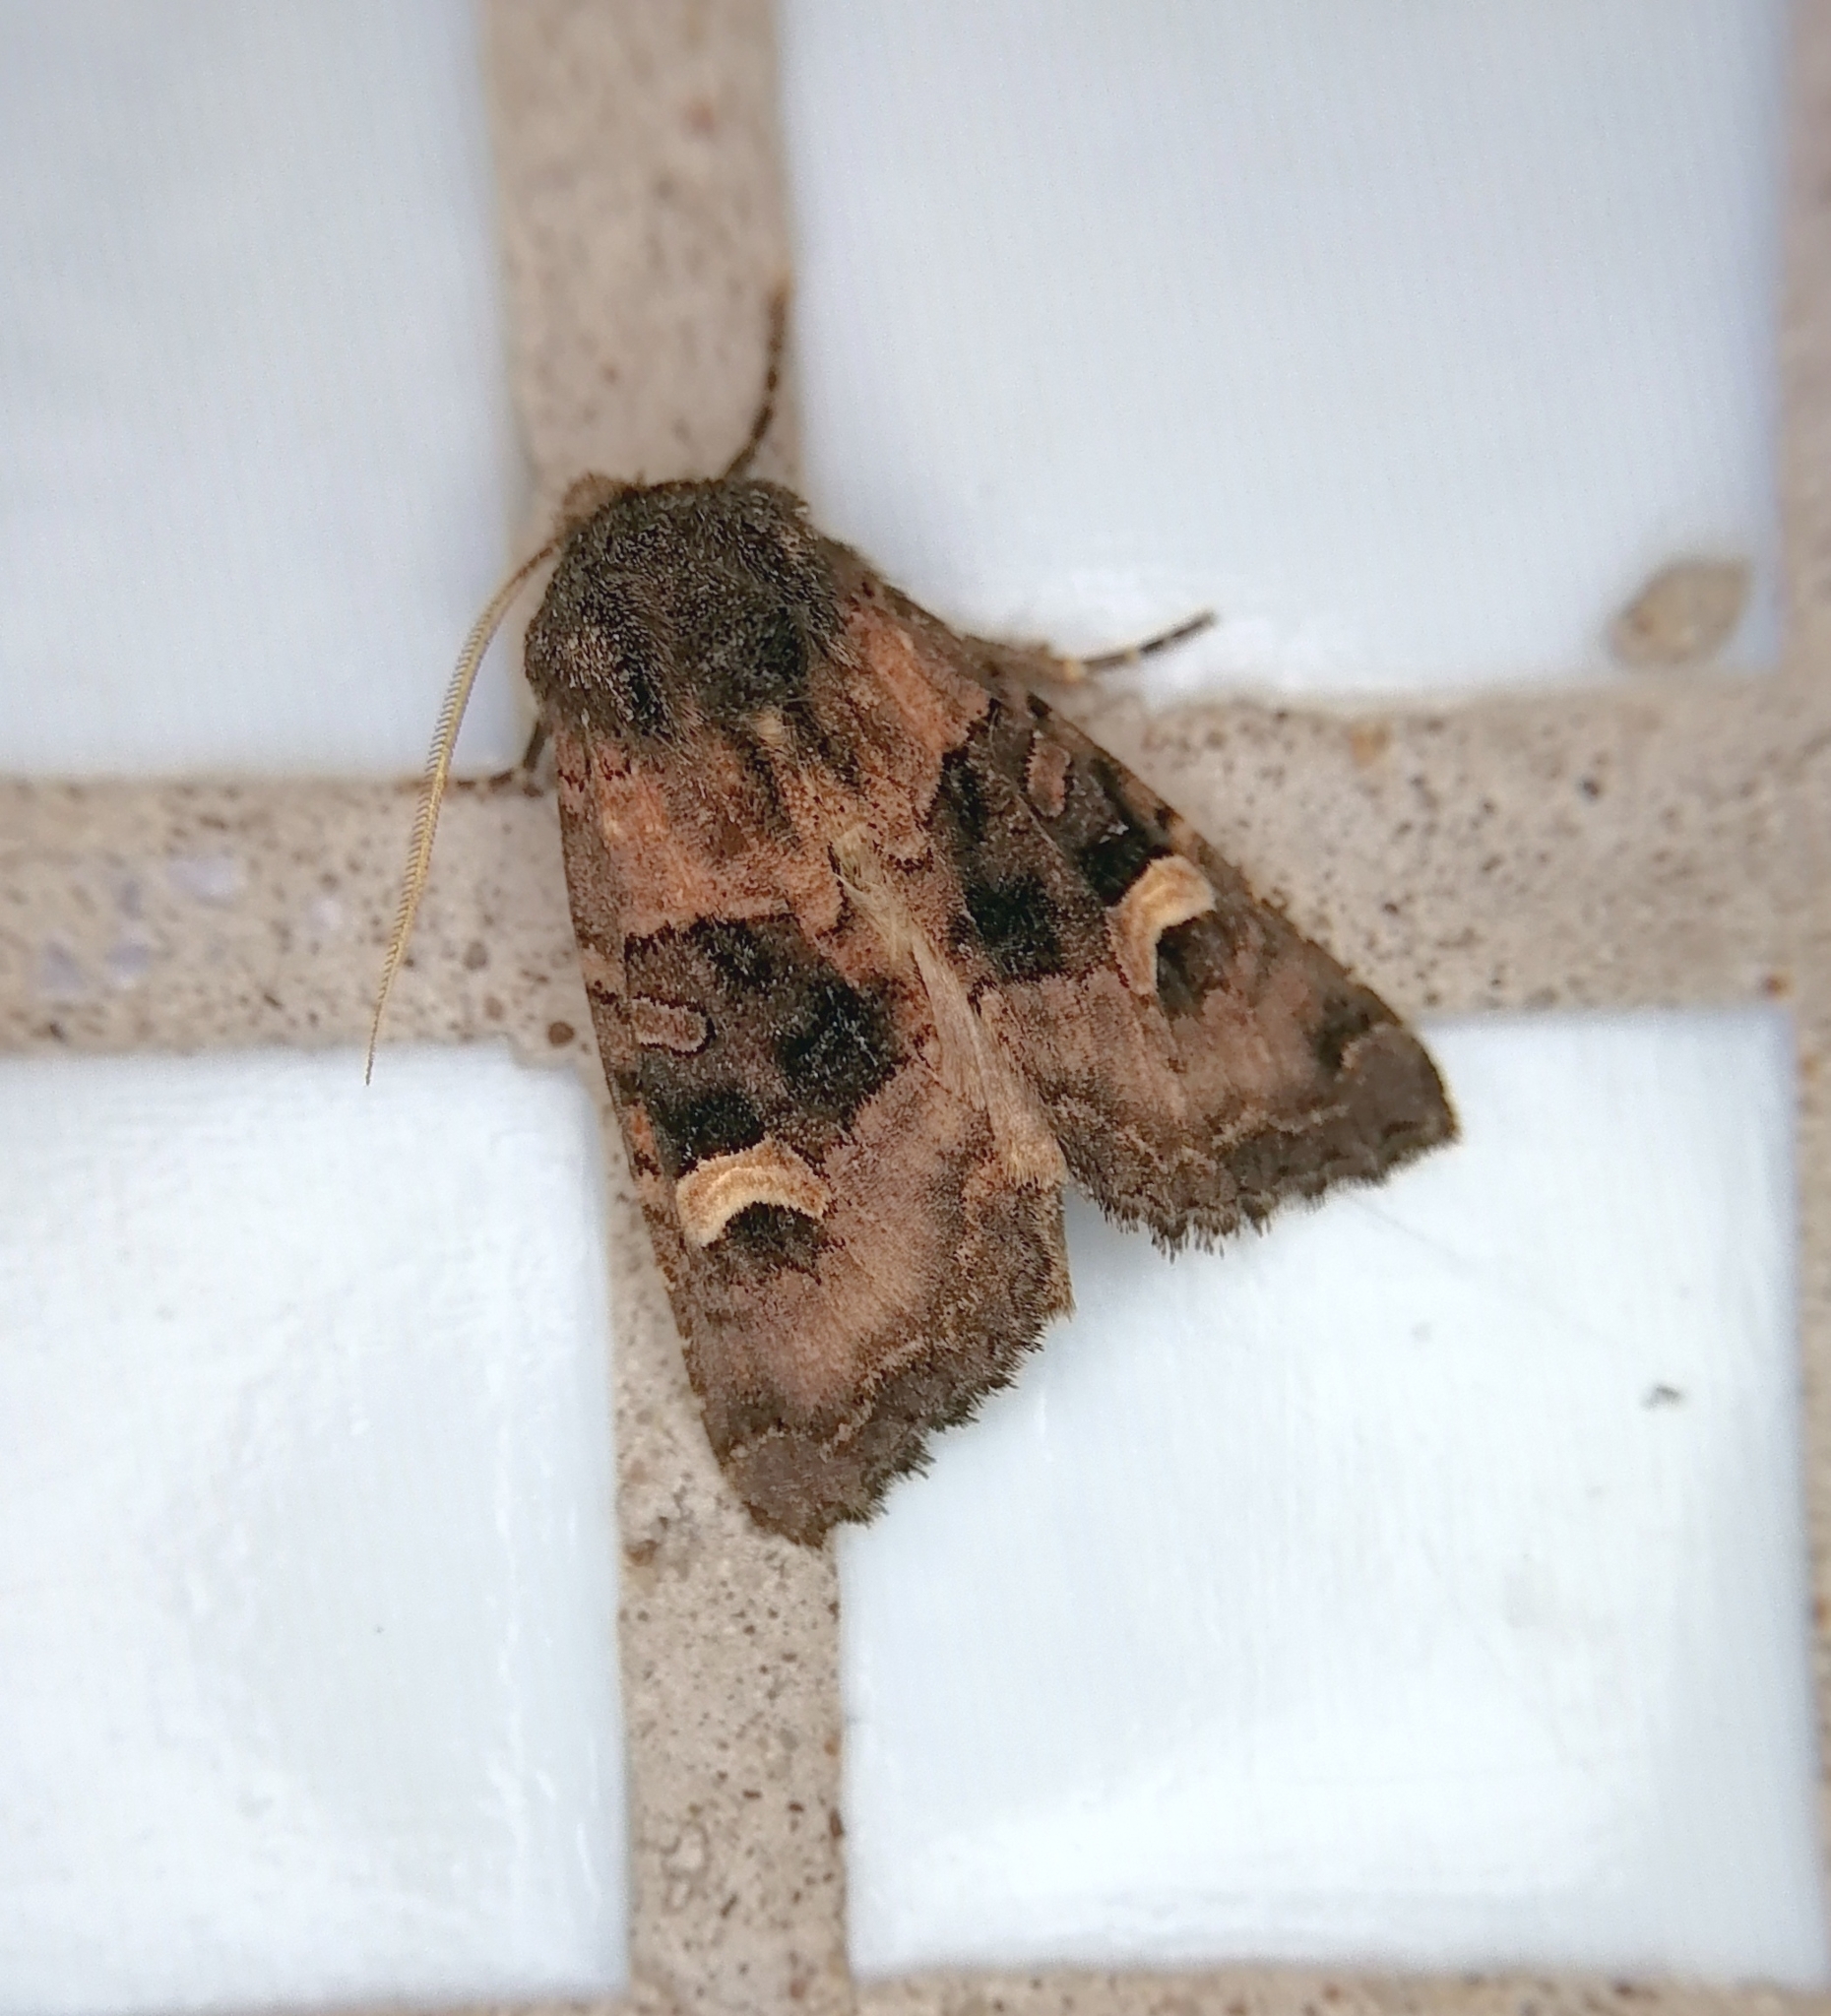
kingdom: Animalia
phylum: Arthropoda
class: Insecta
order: Lepidoptera
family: Noctuidae
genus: Nyssocnemis
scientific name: Nyssocnemis eversmanni
